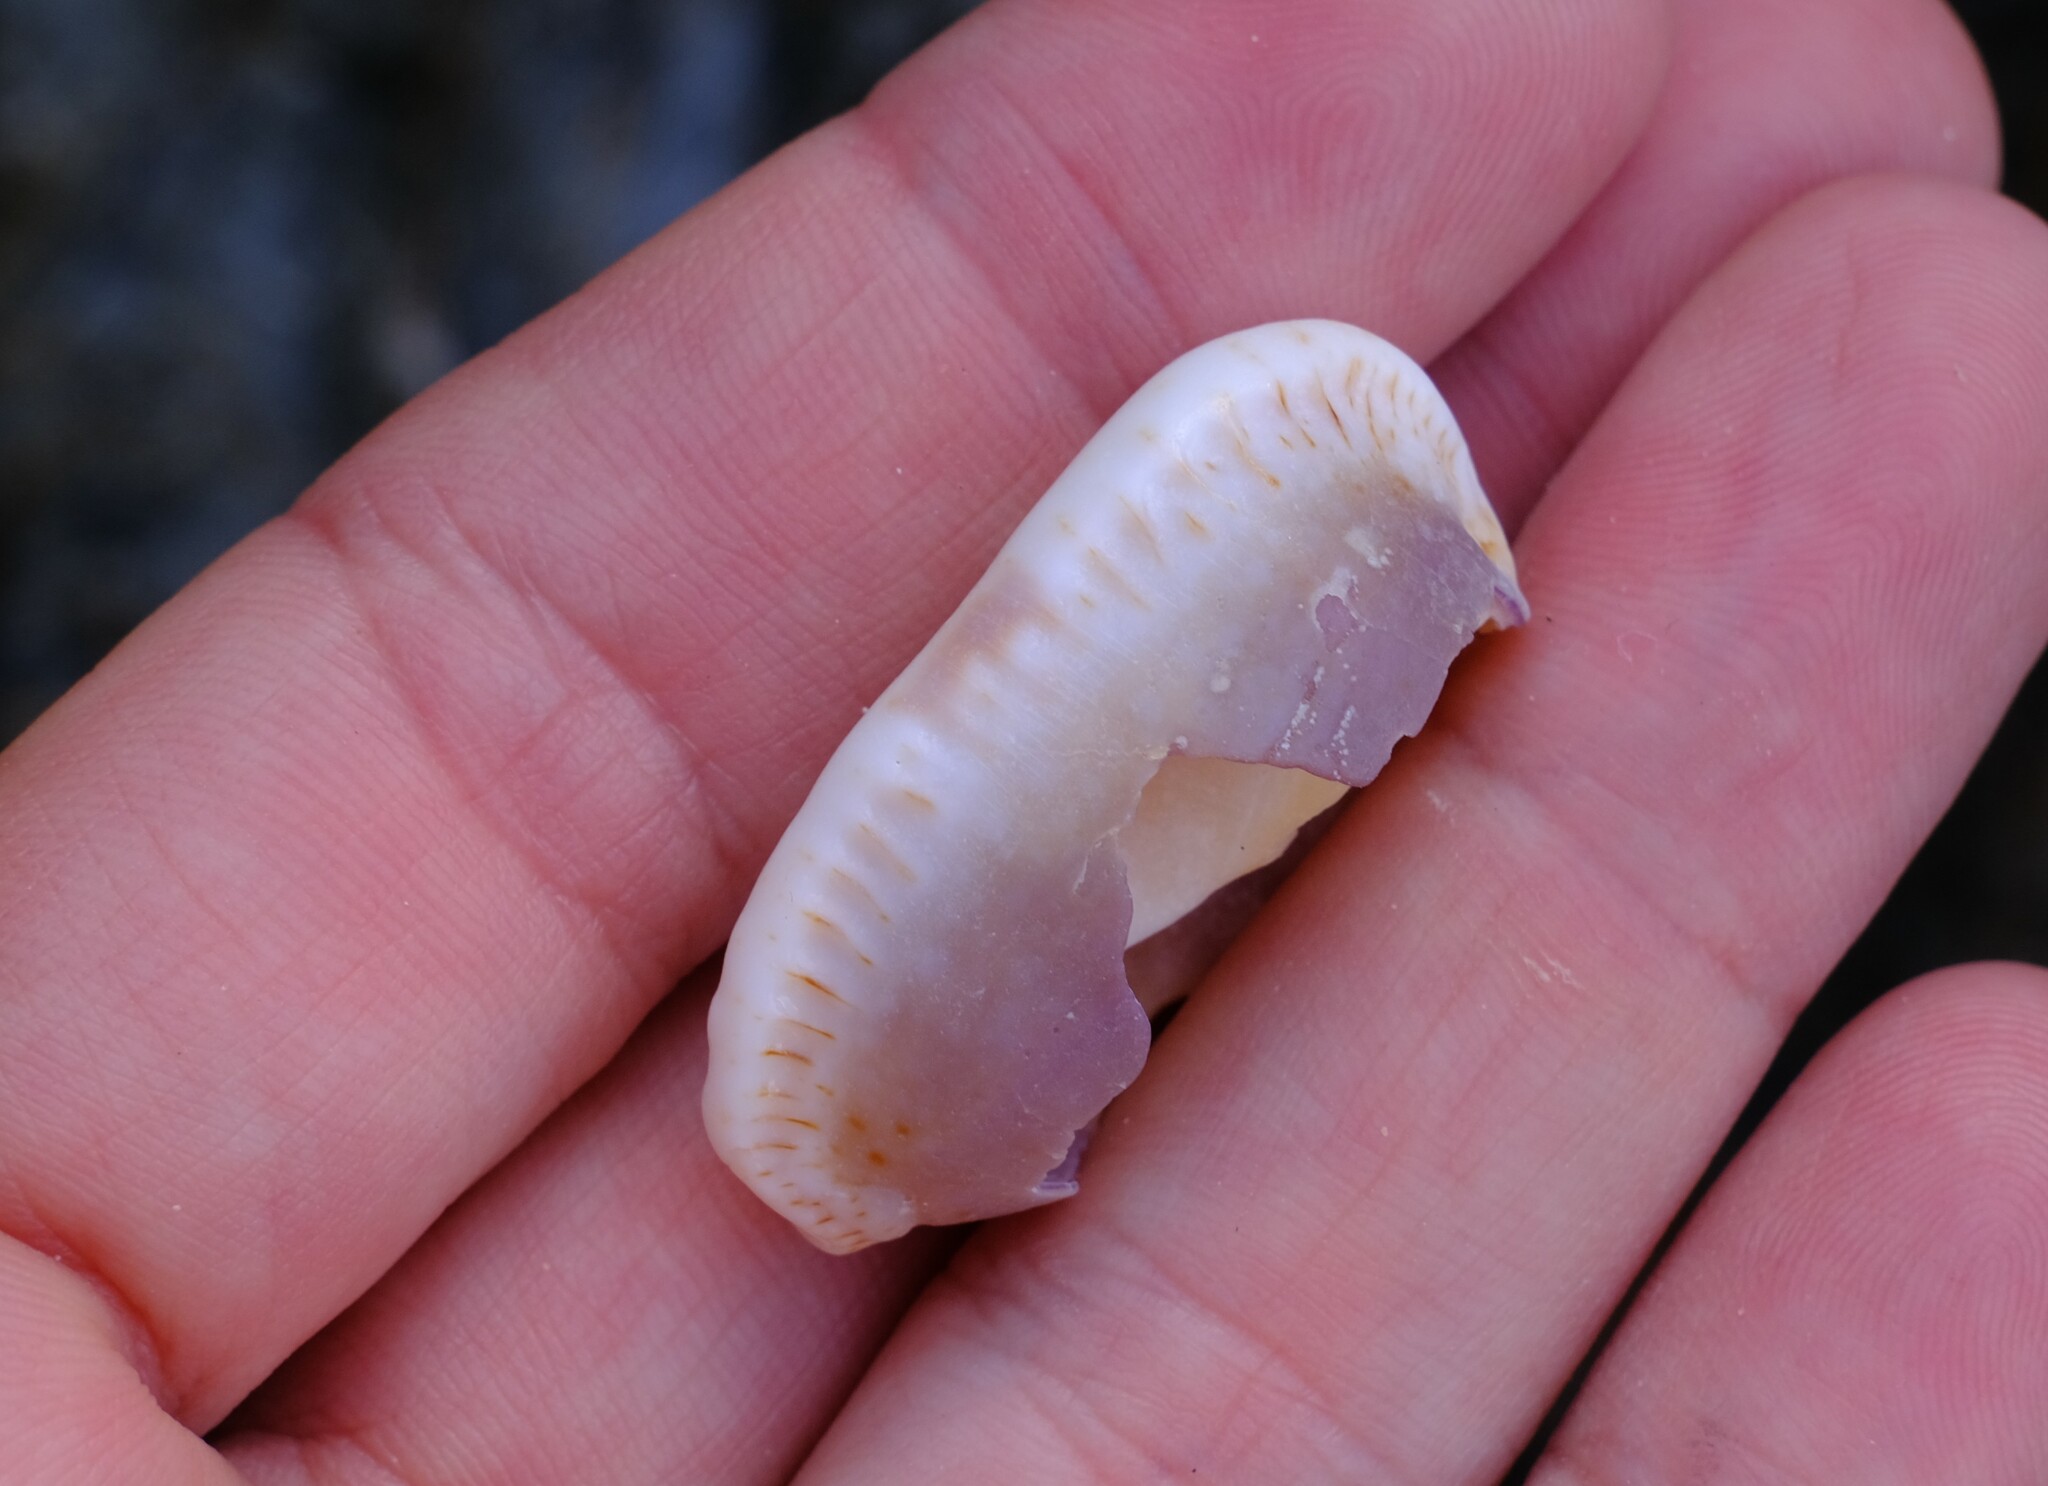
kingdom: Animalia
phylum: Mollusca
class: Gastropoda
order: Littorinimorpha
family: Cypraeidae
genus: Naria
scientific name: Naria erosa
